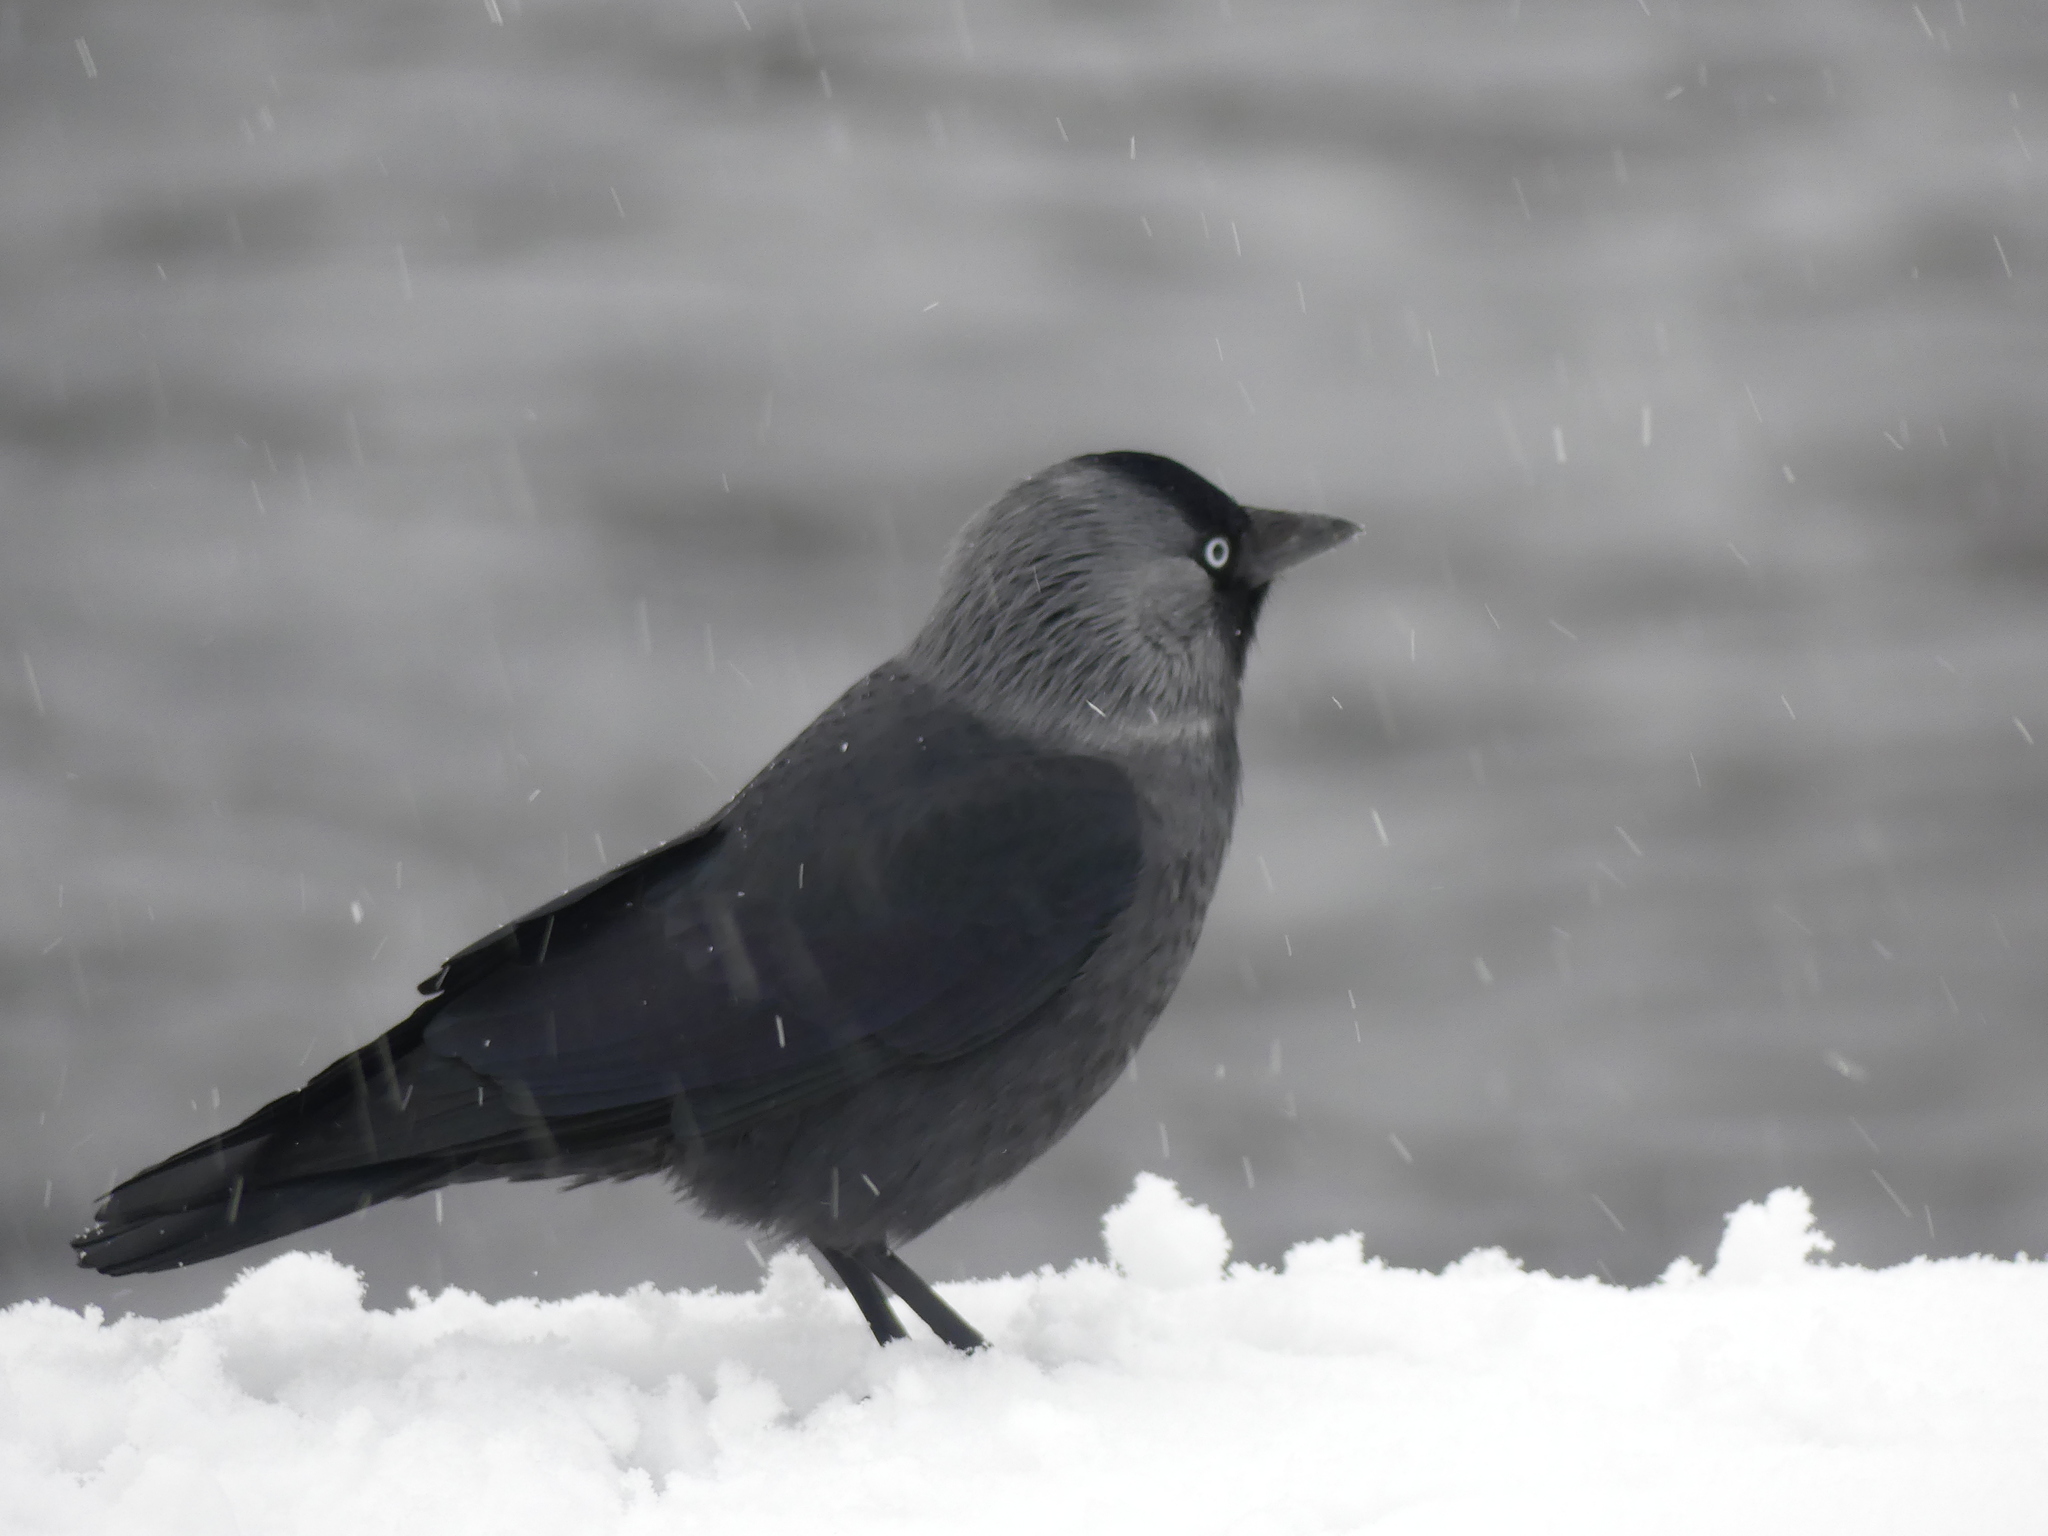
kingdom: Animalia
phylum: Chordata
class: Aves
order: Passeriformes
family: Corvidae
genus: Coloeus
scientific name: Coloeus monedula
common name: Western jackdaw
